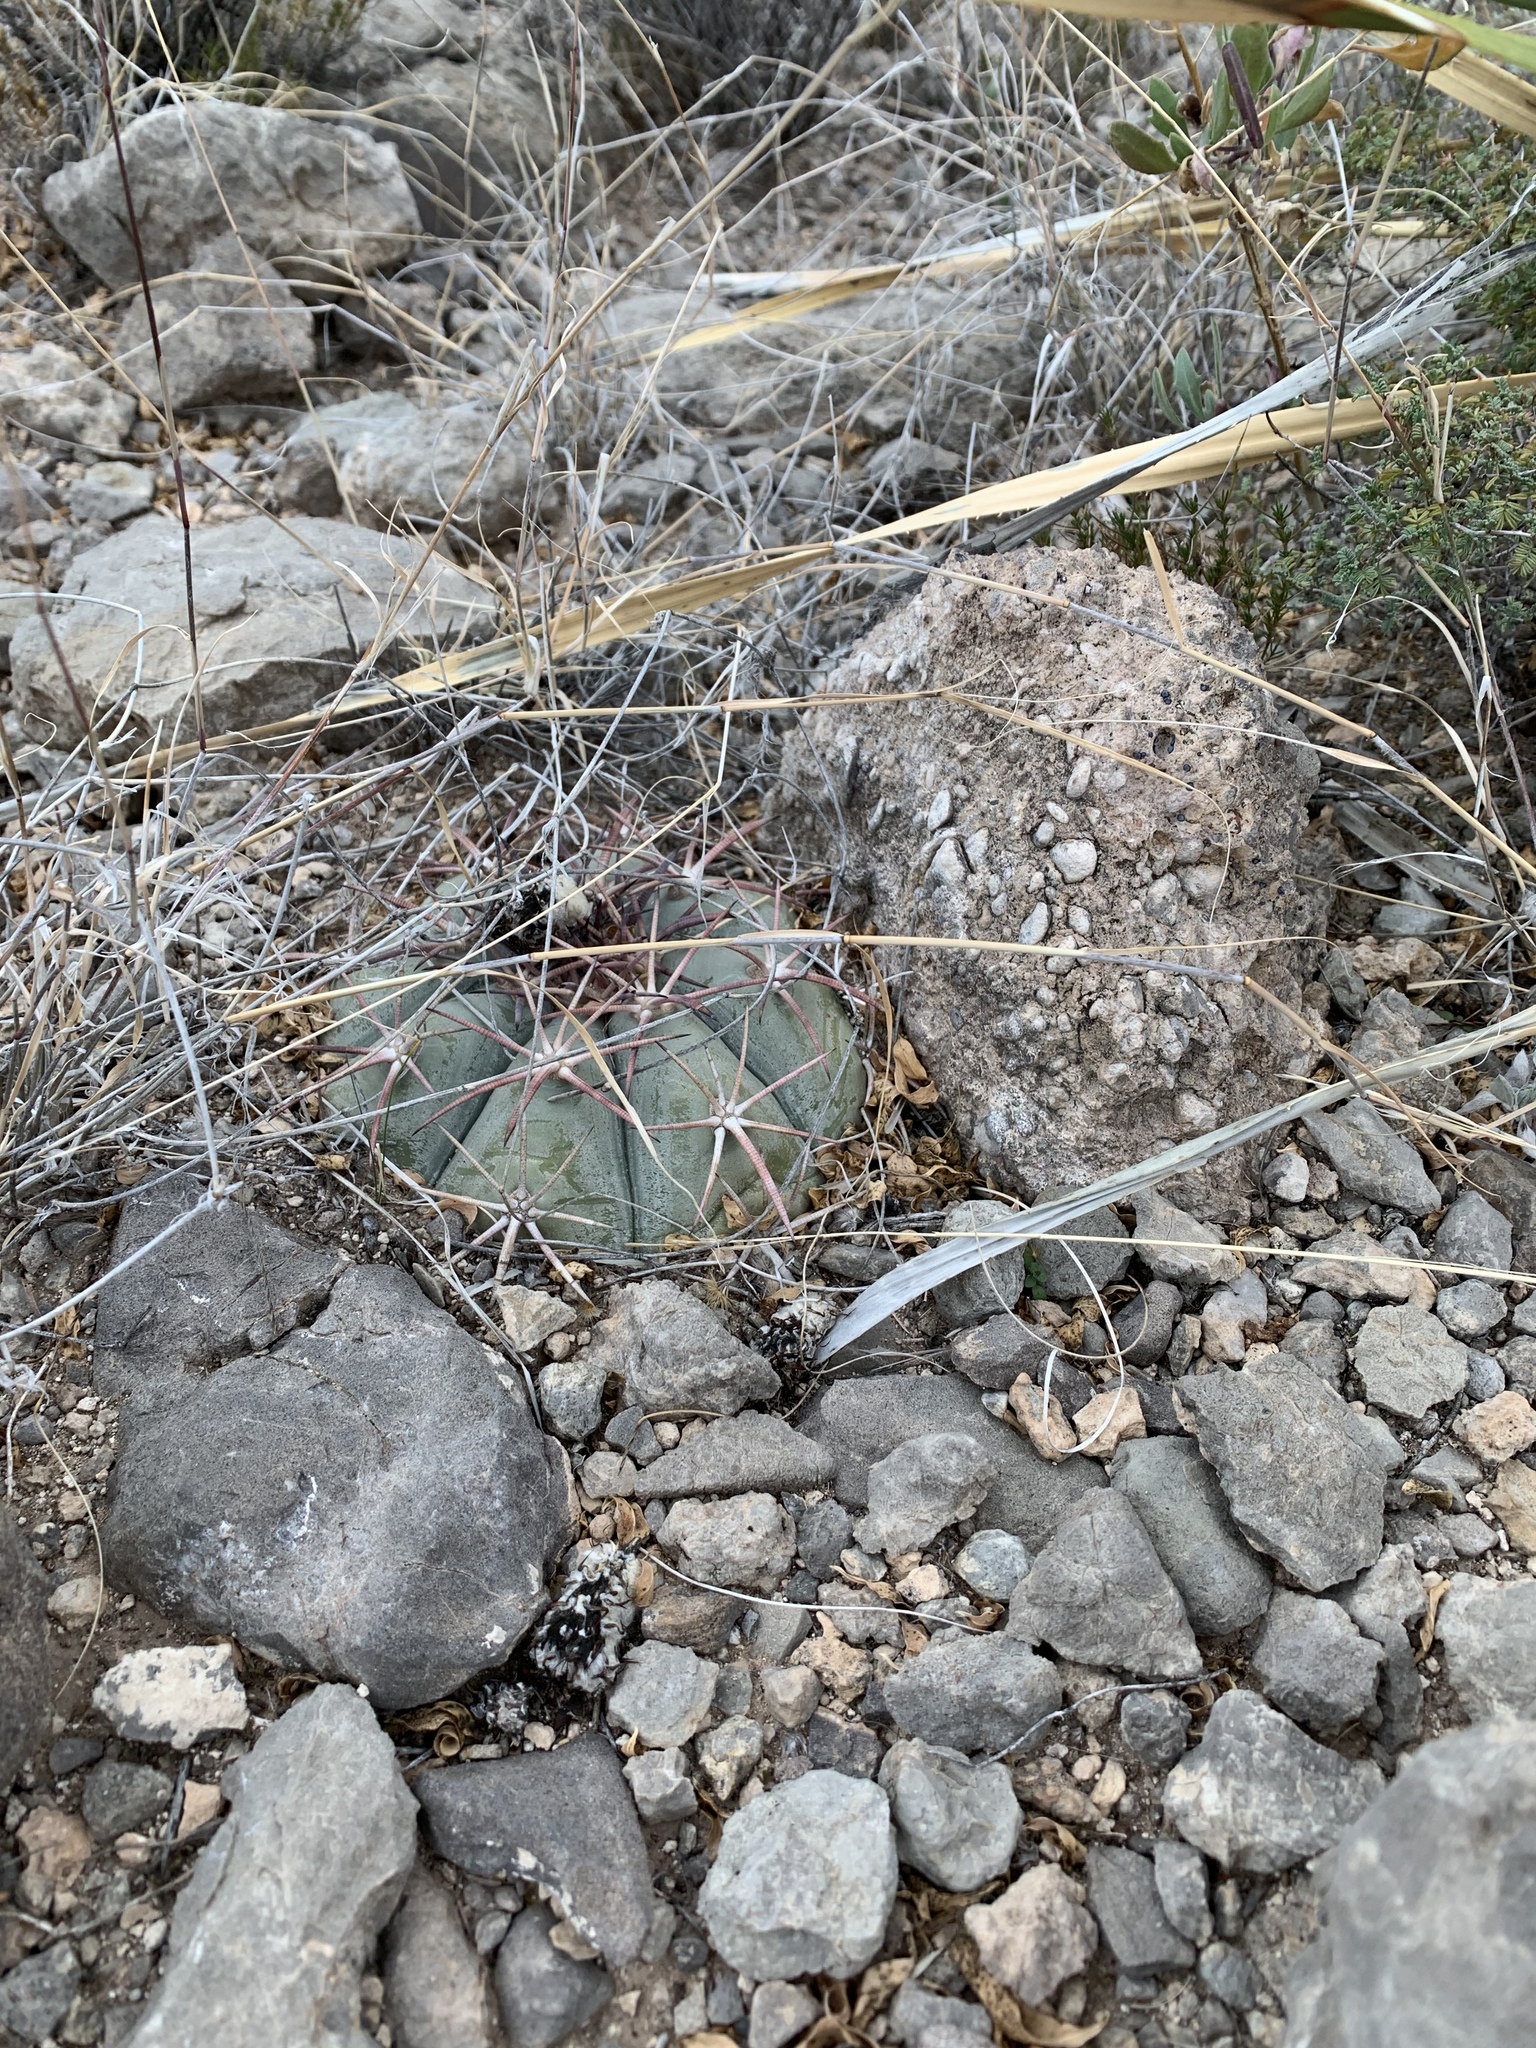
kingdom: Plantae
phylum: Tracheophyta
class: Magnoliopsida
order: Caryophyllales
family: Cactaceae
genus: Echinocactus
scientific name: Echinocactus horizonthalonius
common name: Devilshead
